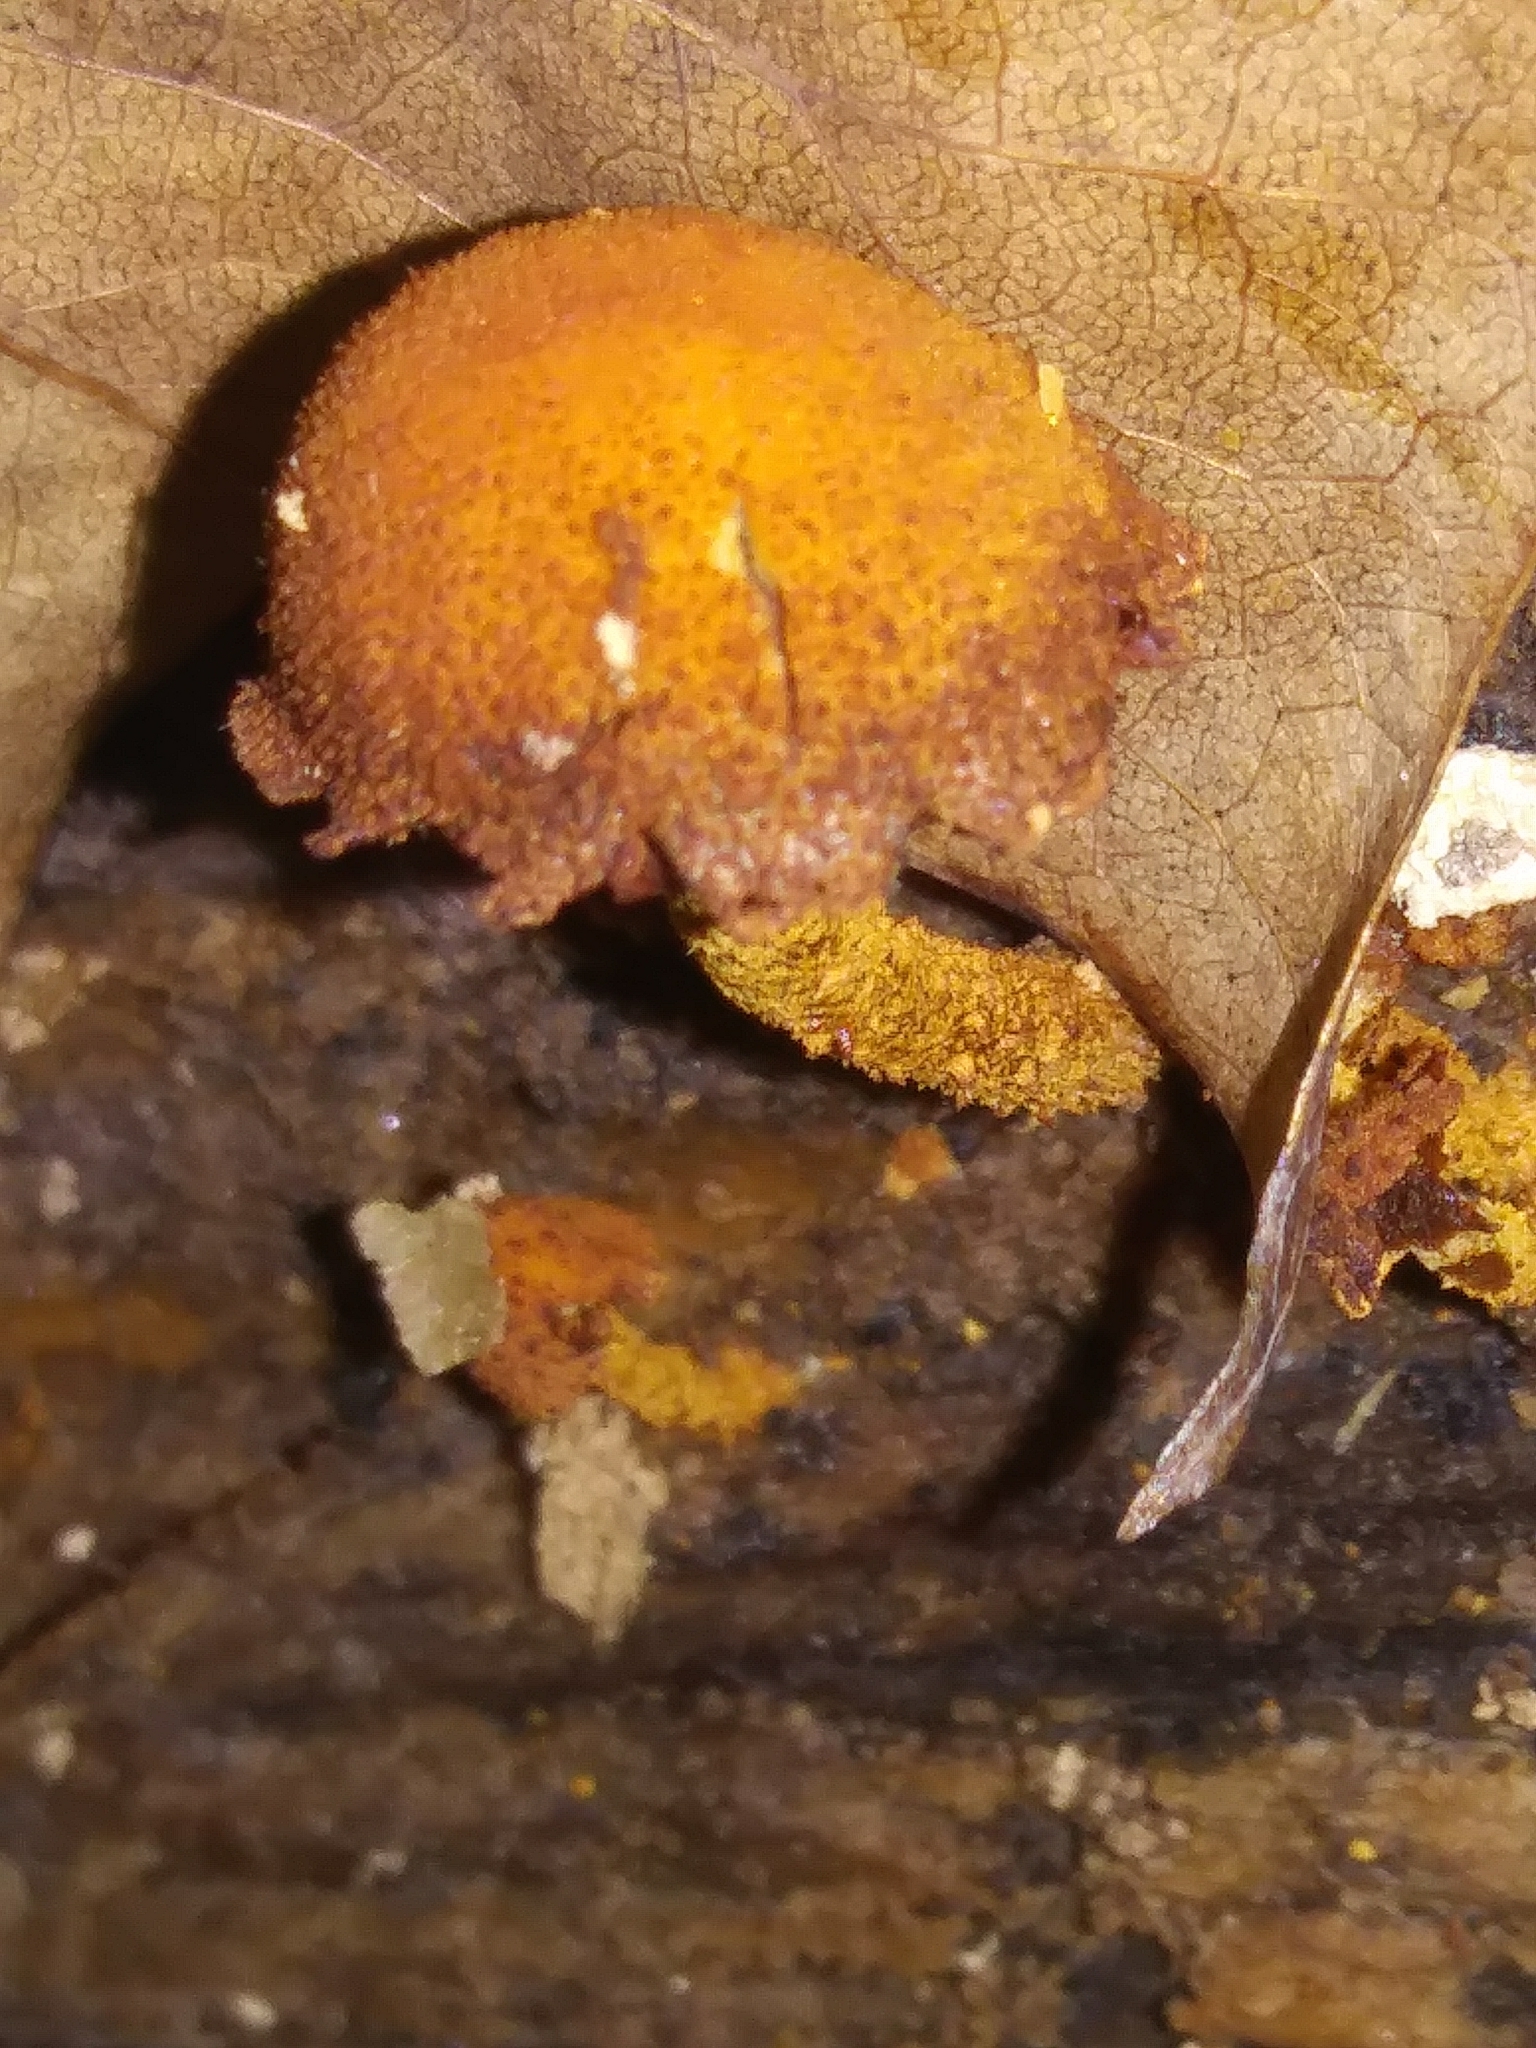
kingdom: Fungi
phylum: Basidiomycota
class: Agaricomycetes
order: Agaricales
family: Tubariaceae
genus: Flammulaster
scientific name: Flammulaster erinaceellus
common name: Powder-scale pholiota
